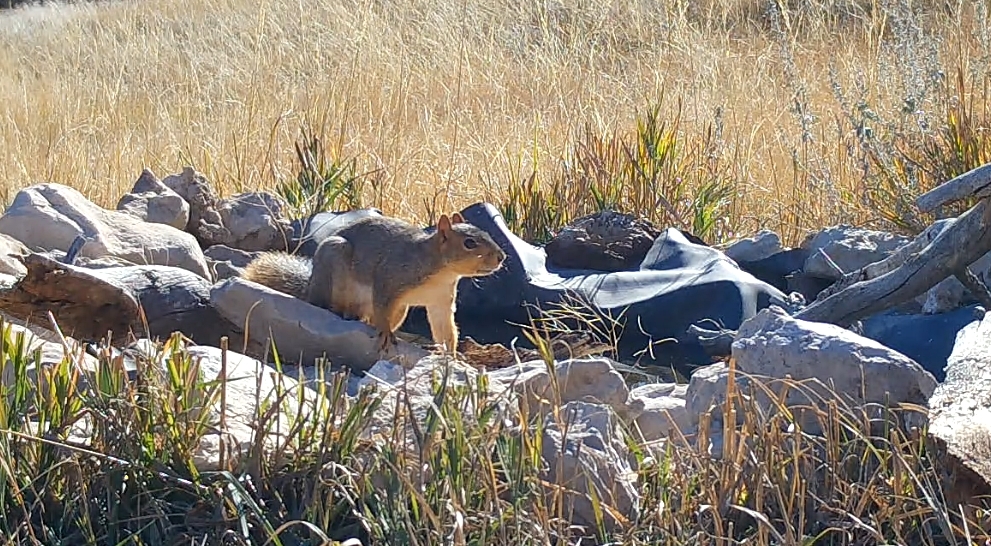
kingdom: Animalia
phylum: Chordata
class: Mammalia
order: Rodentia
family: Sciuridae
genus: Sciurus
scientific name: Sciurus niger
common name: Fox squirrel
